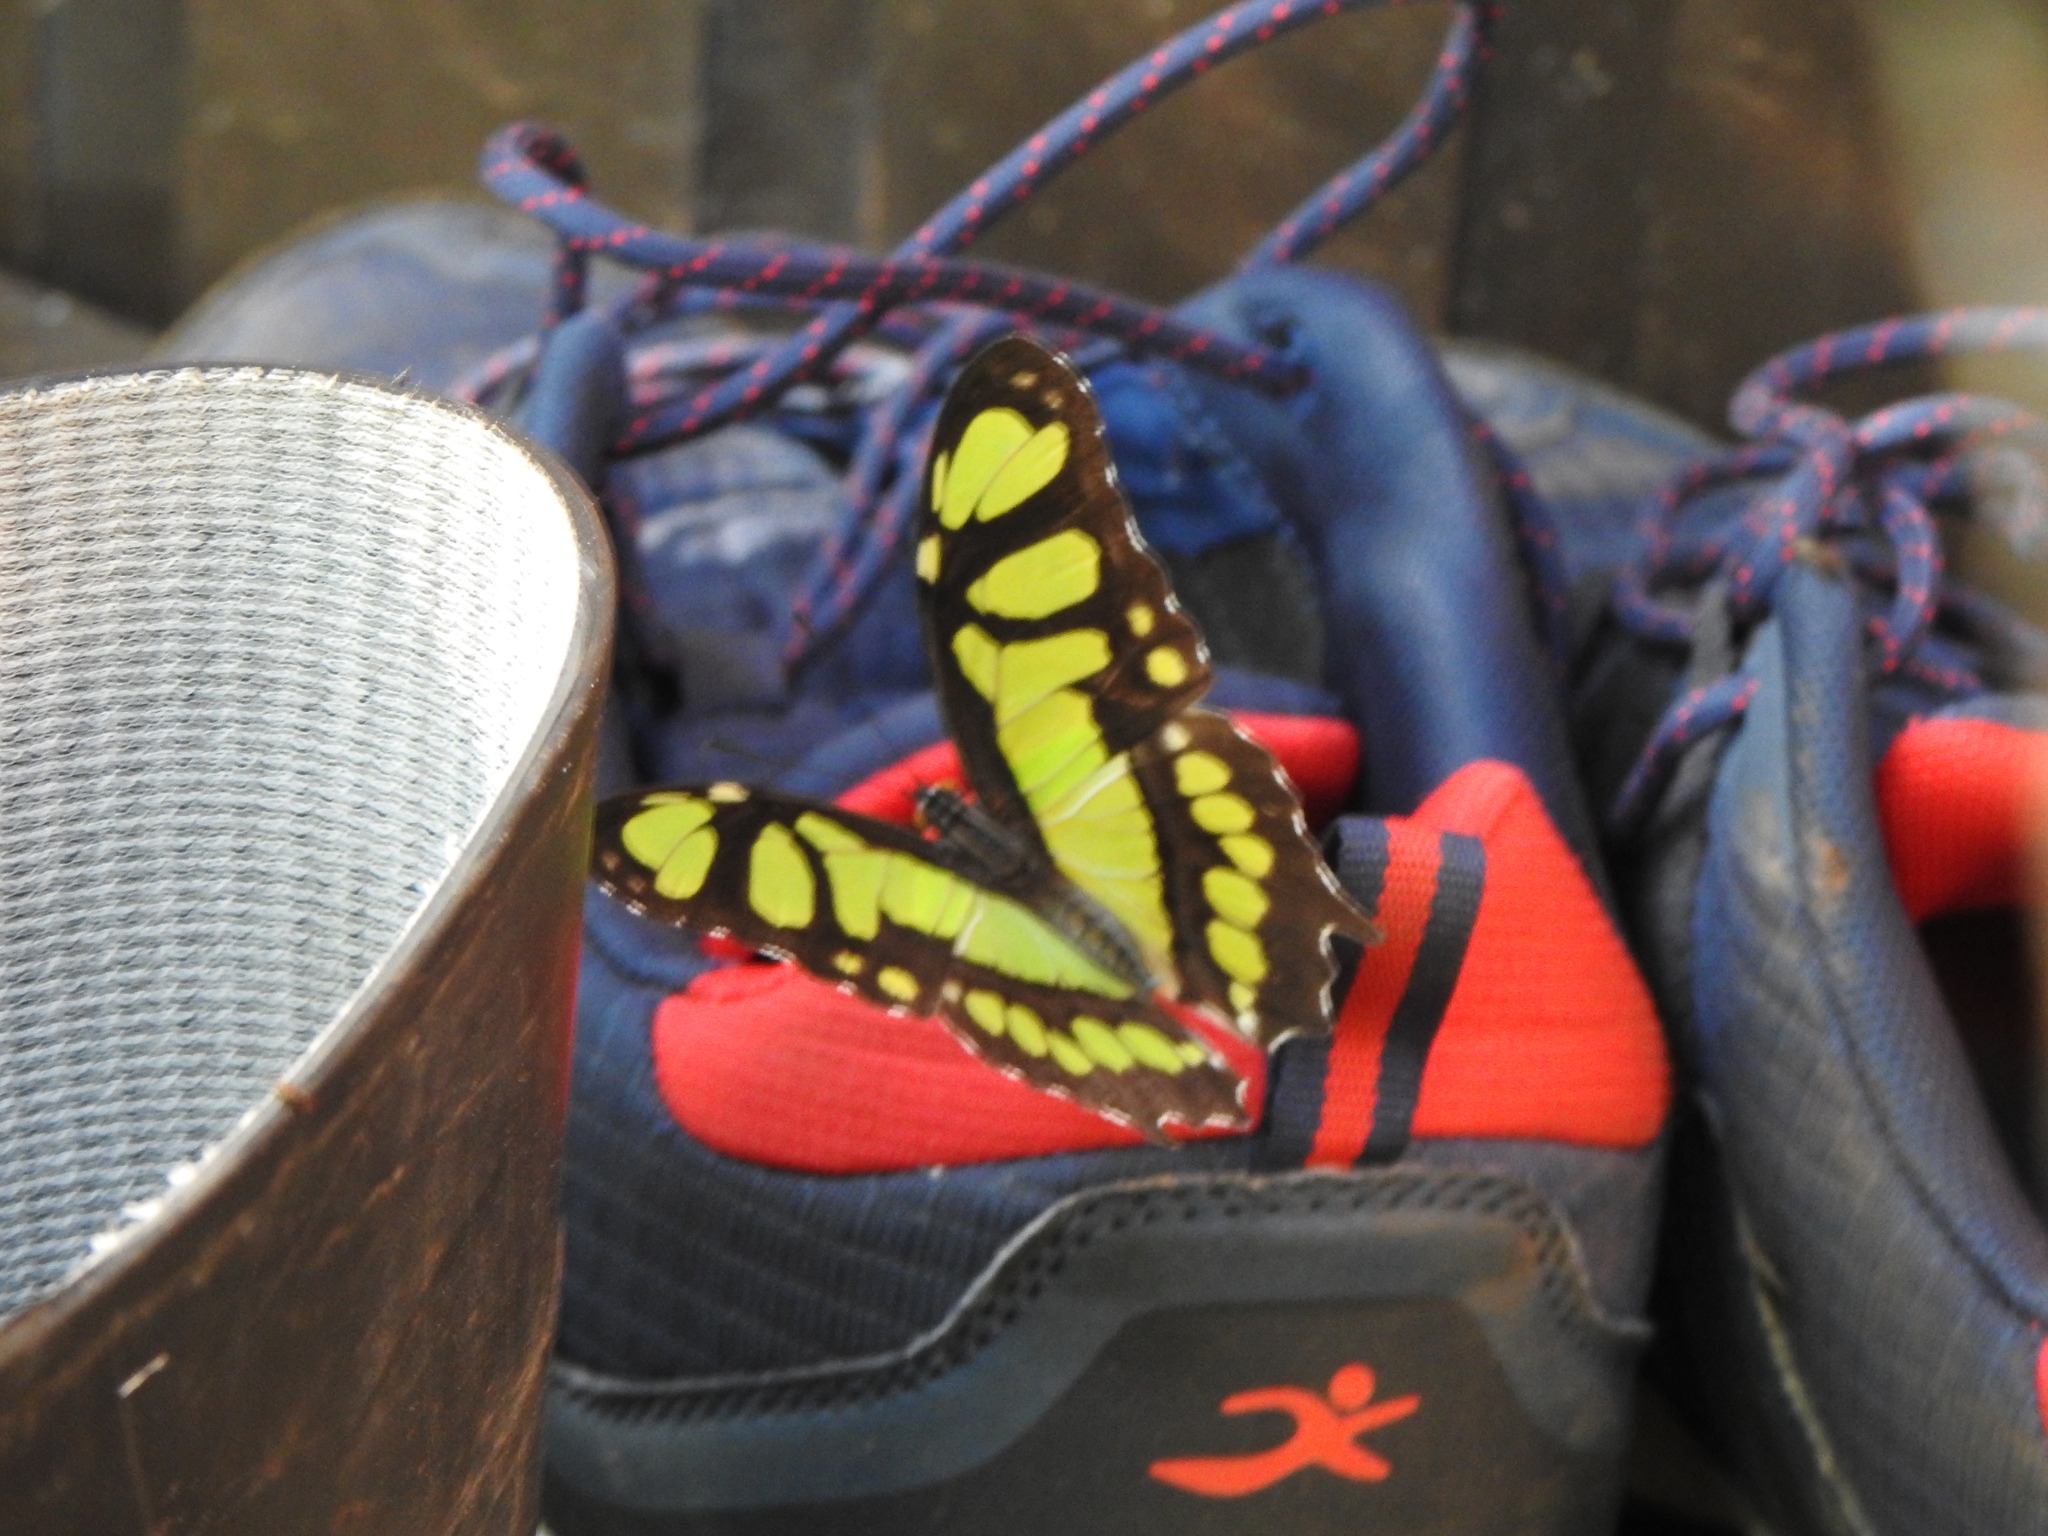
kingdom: Animalia
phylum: Arthropoda
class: Insecta
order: Lepidoptera
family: Nymphalidae
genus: Siproeta
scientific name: Siproeta stelenes
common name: Malachite
